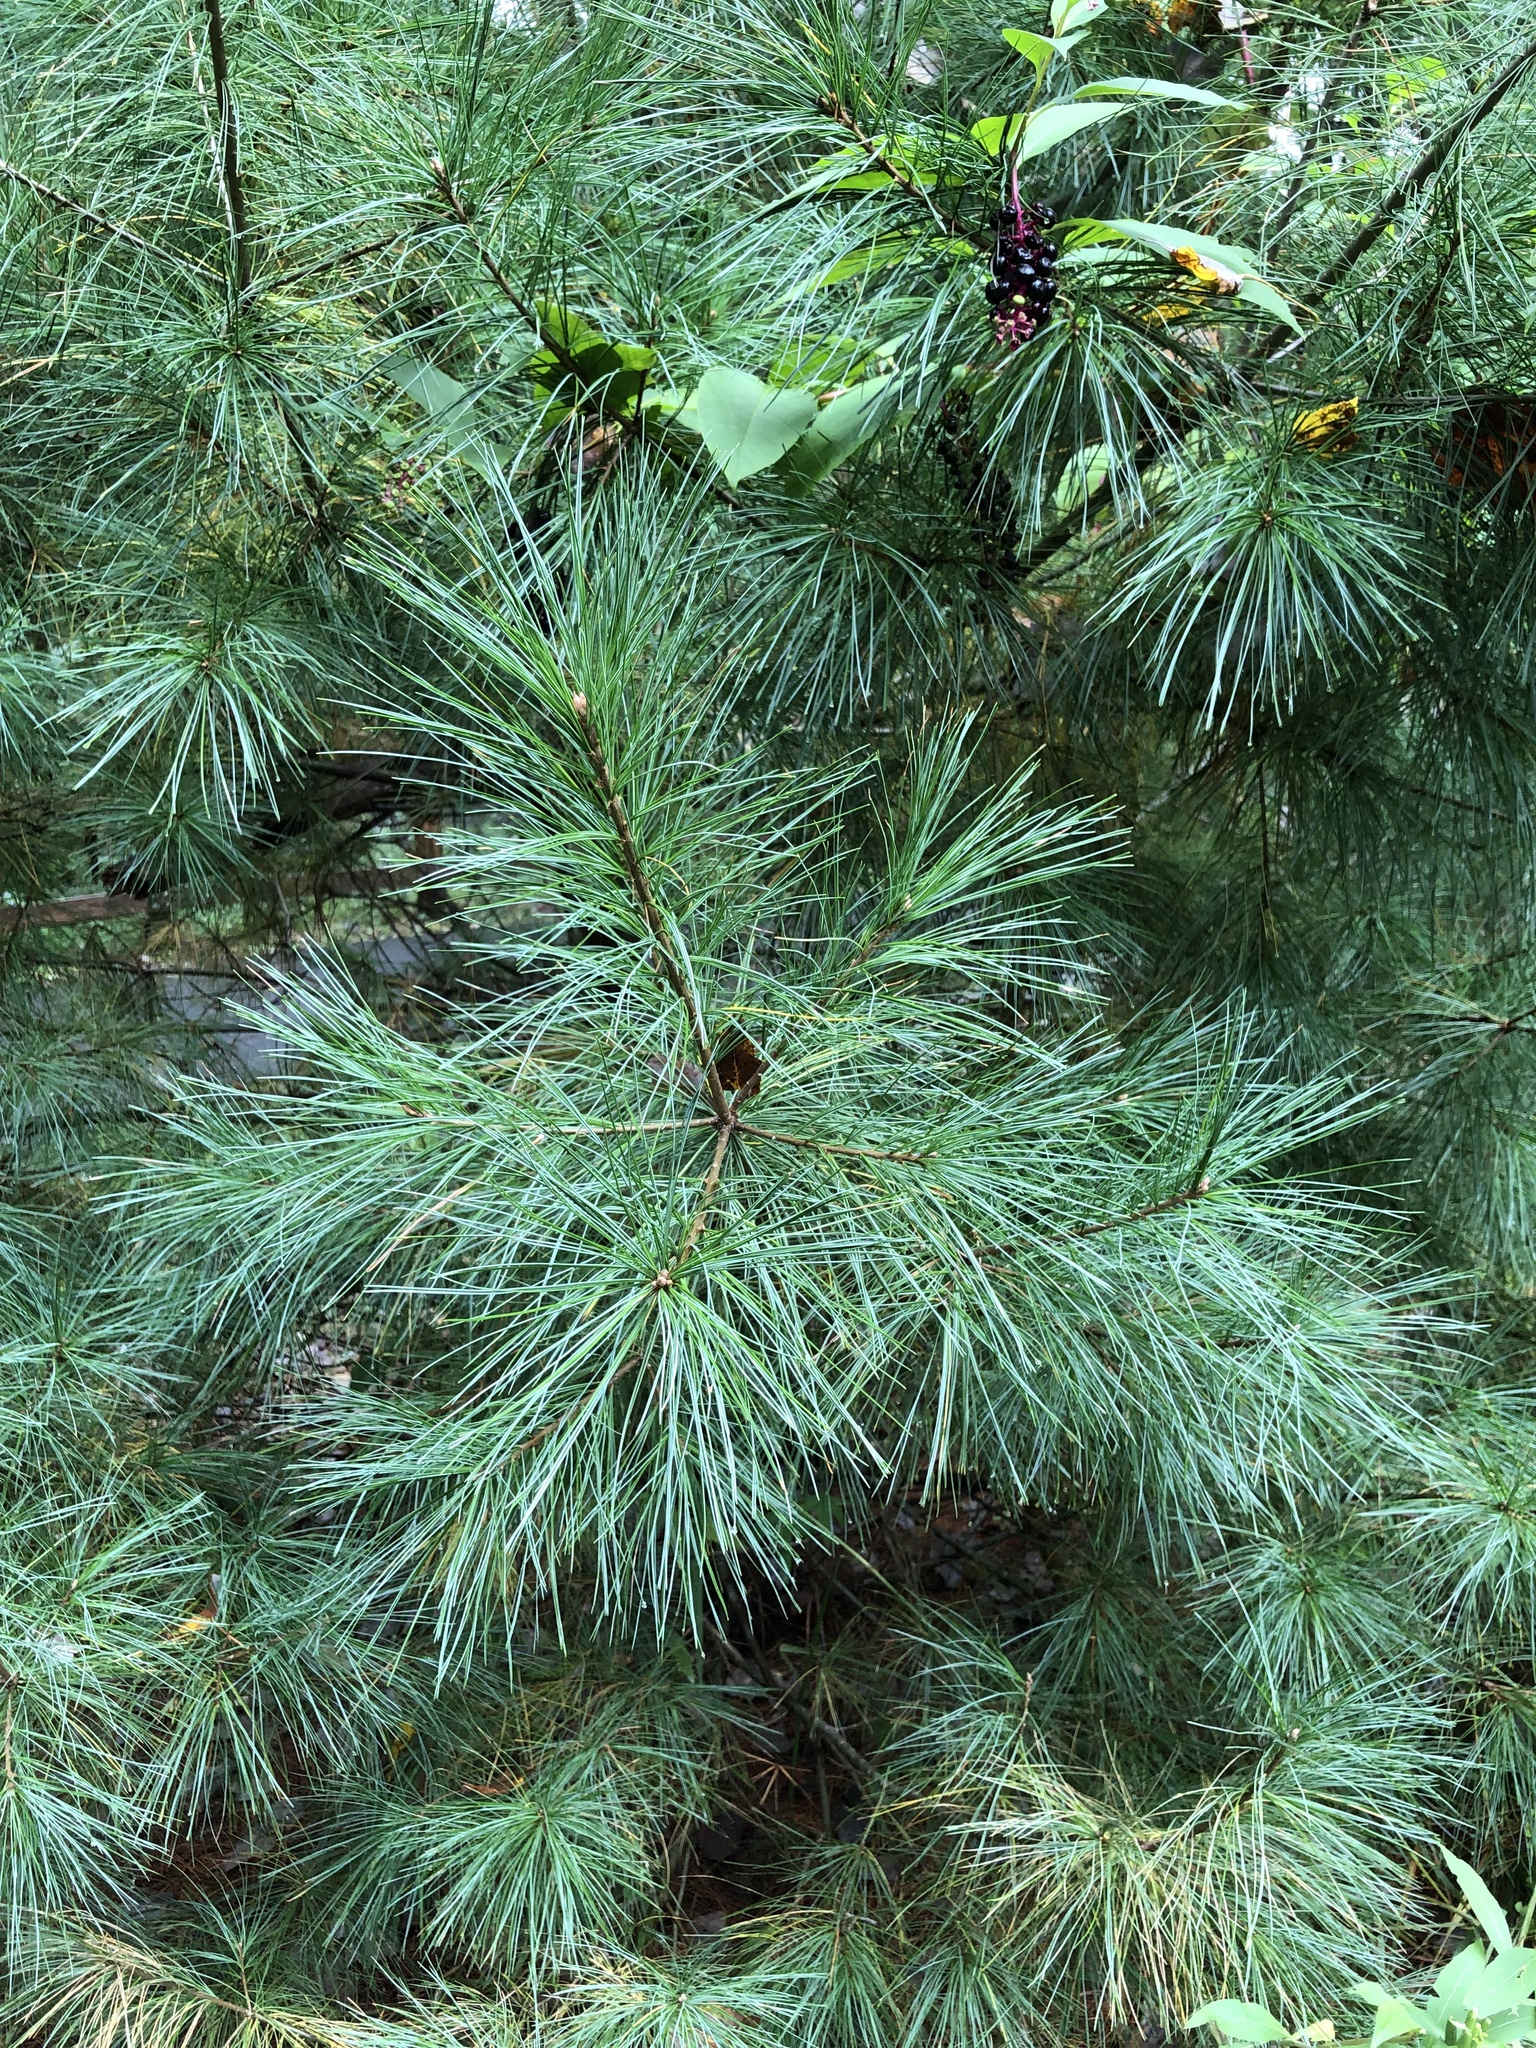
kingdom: Plantae
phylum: Tracheophyta
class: Pinopsida
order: Pinales
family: Pinaceae
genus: Pinus
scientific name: Pinus strobus
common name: Weymouth pine
